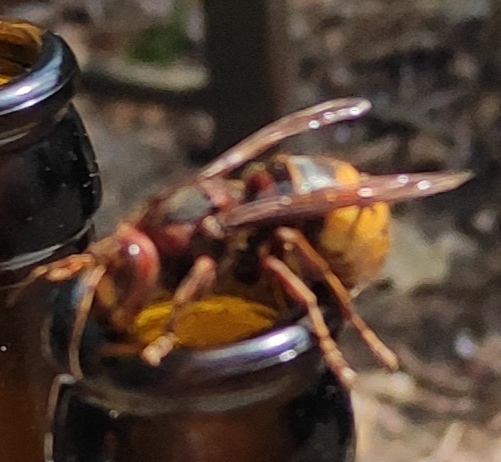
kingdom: Animalia
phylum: Arthropoda
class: Insecta
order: Hymenoptera
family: Vespidae
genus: Vespa
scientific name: Vespa crabro
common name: Hornet
